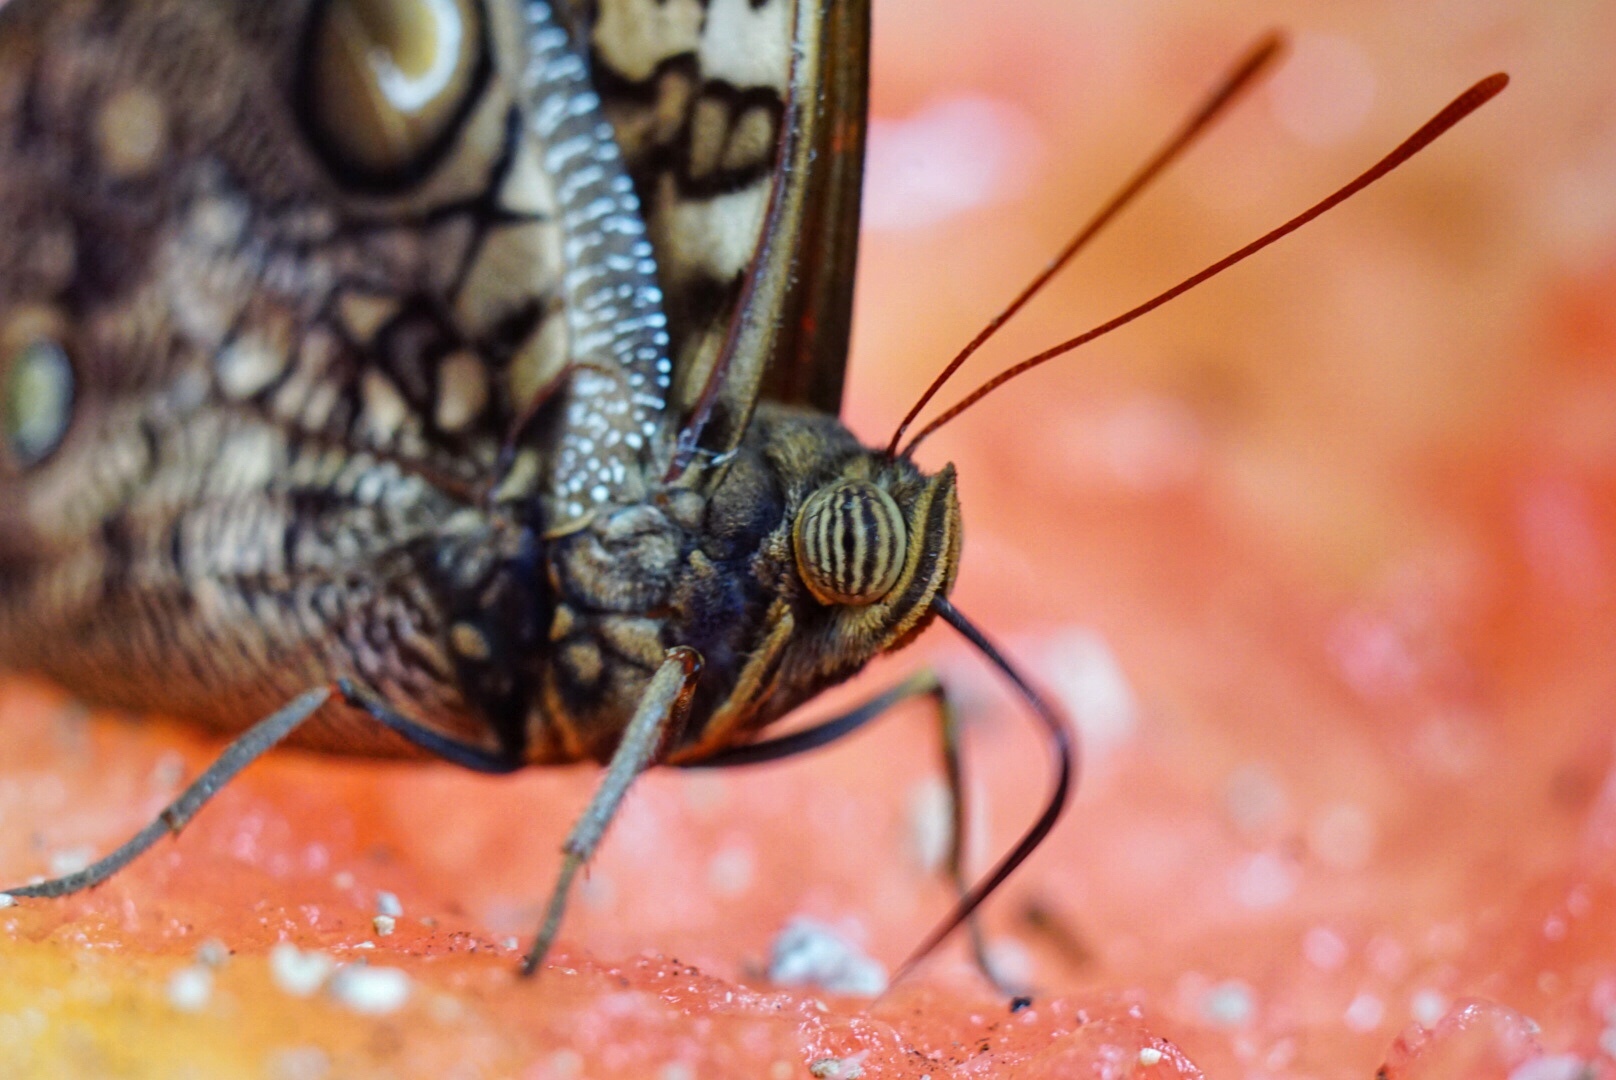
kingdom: Animalia
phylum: Arthropoda
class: Insecta
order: Lepidoptera
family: Nymphalidae
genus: Opsiphanes
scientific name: Opsiphanes cassina
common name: Split-banded owl-butterfly
